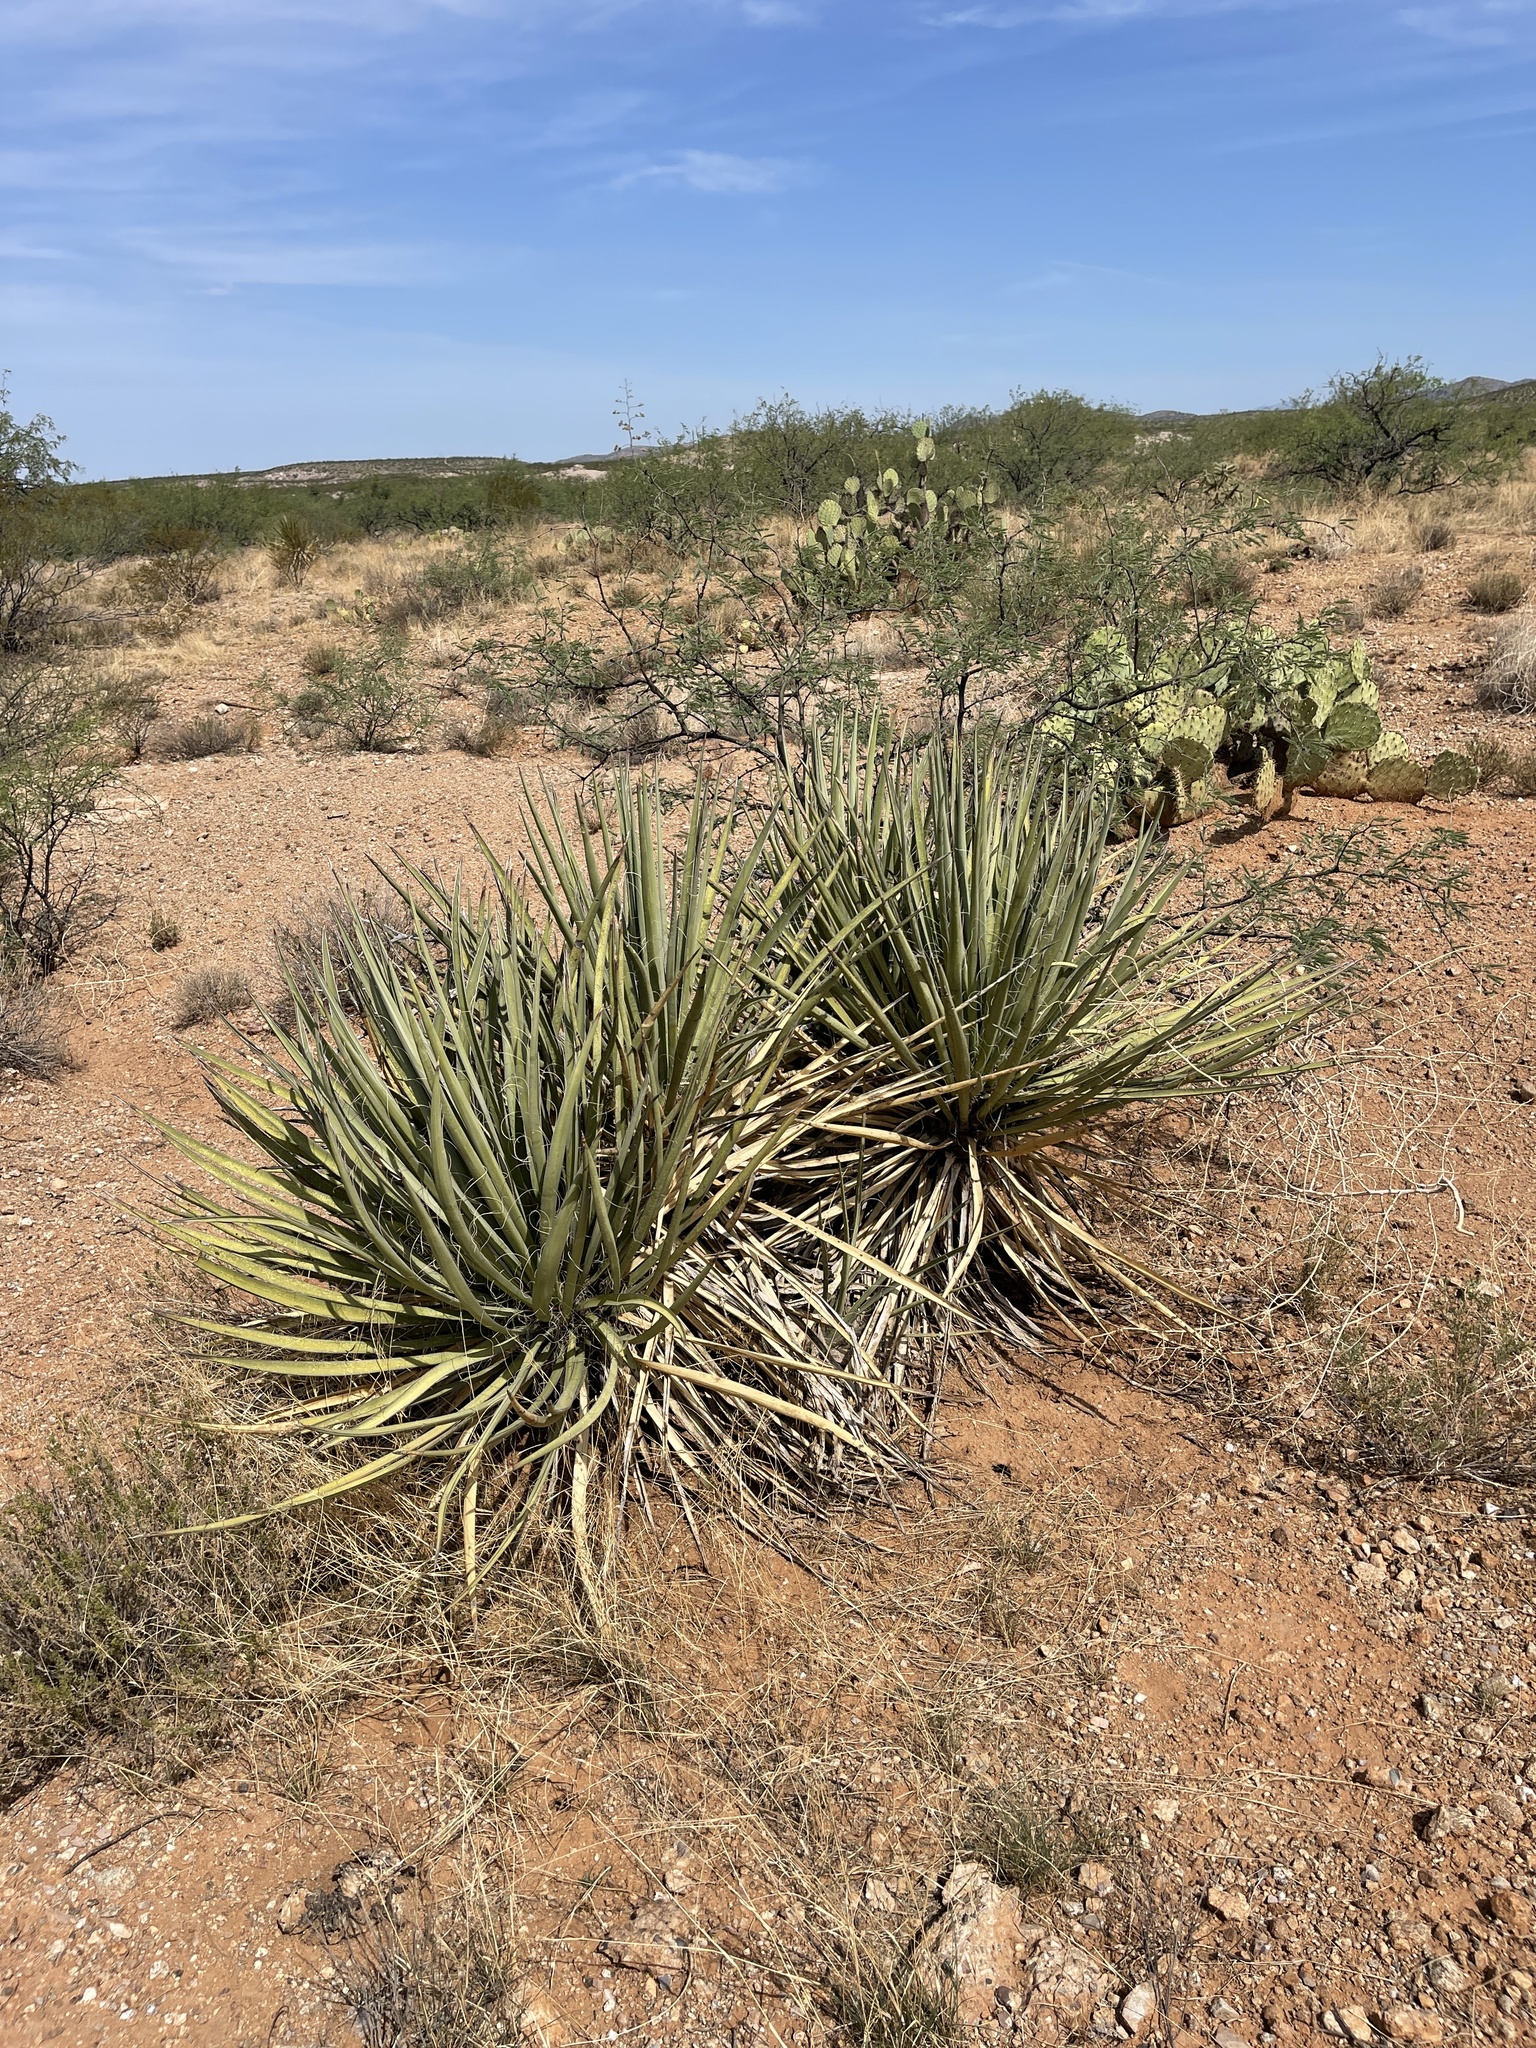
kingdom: Plantae
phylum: Tracheophyta
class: Liliopsida
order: Asparagales
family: Asparagaceae
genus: Yucca
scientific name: Yucca baccata
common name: Banana yucca
